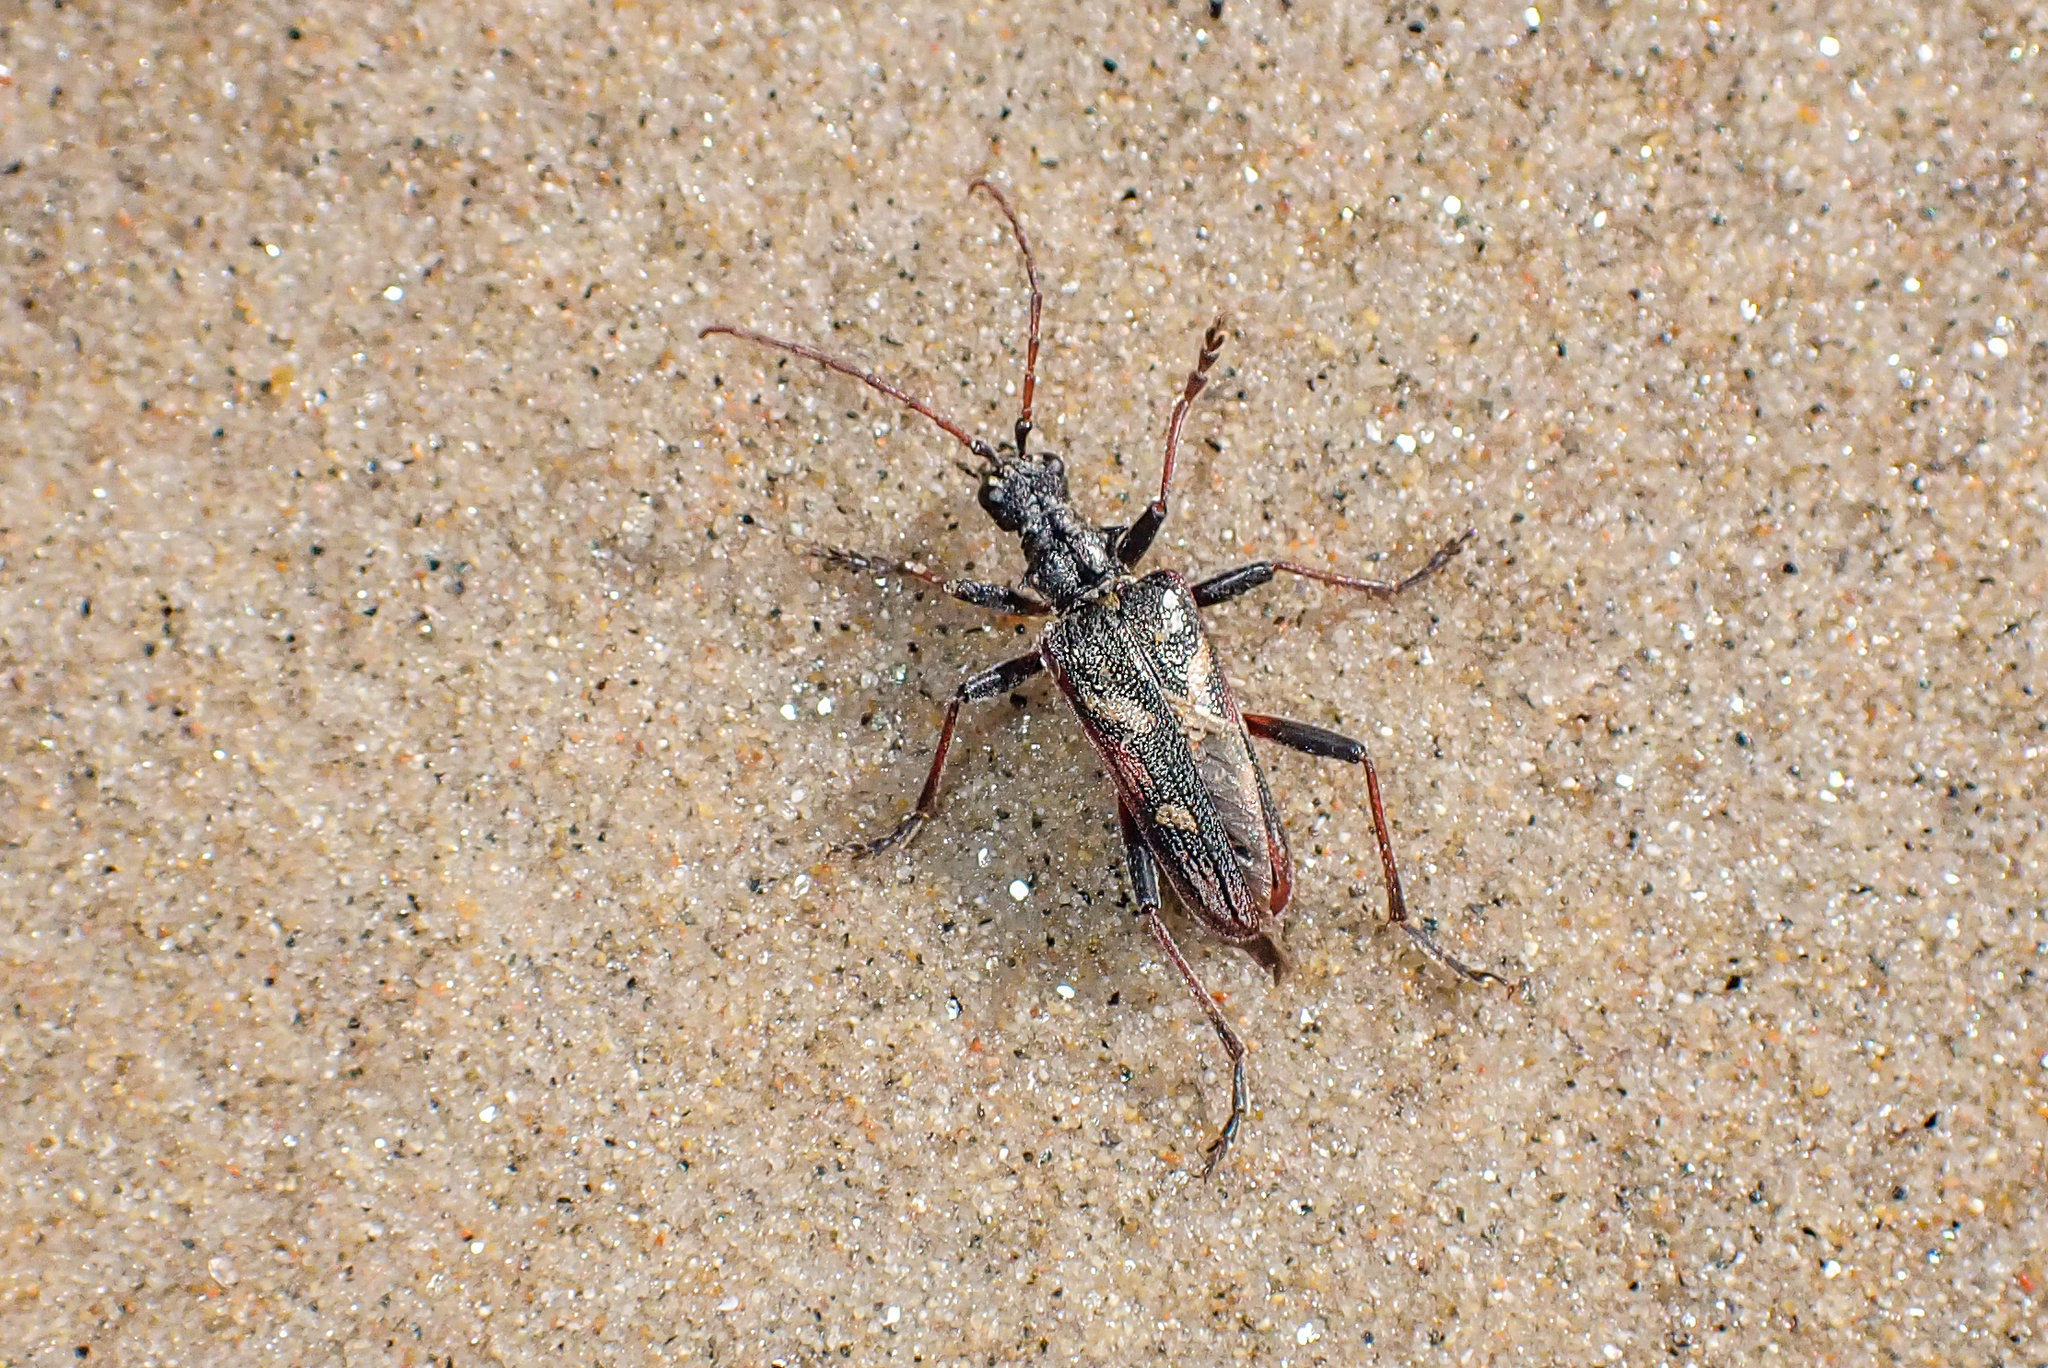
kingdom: Animalia
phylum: Arthropoda
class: Insecta
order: Coleoptera
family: Cerambycidae
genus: Rhagium
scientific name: Rhagium bifasciatum
